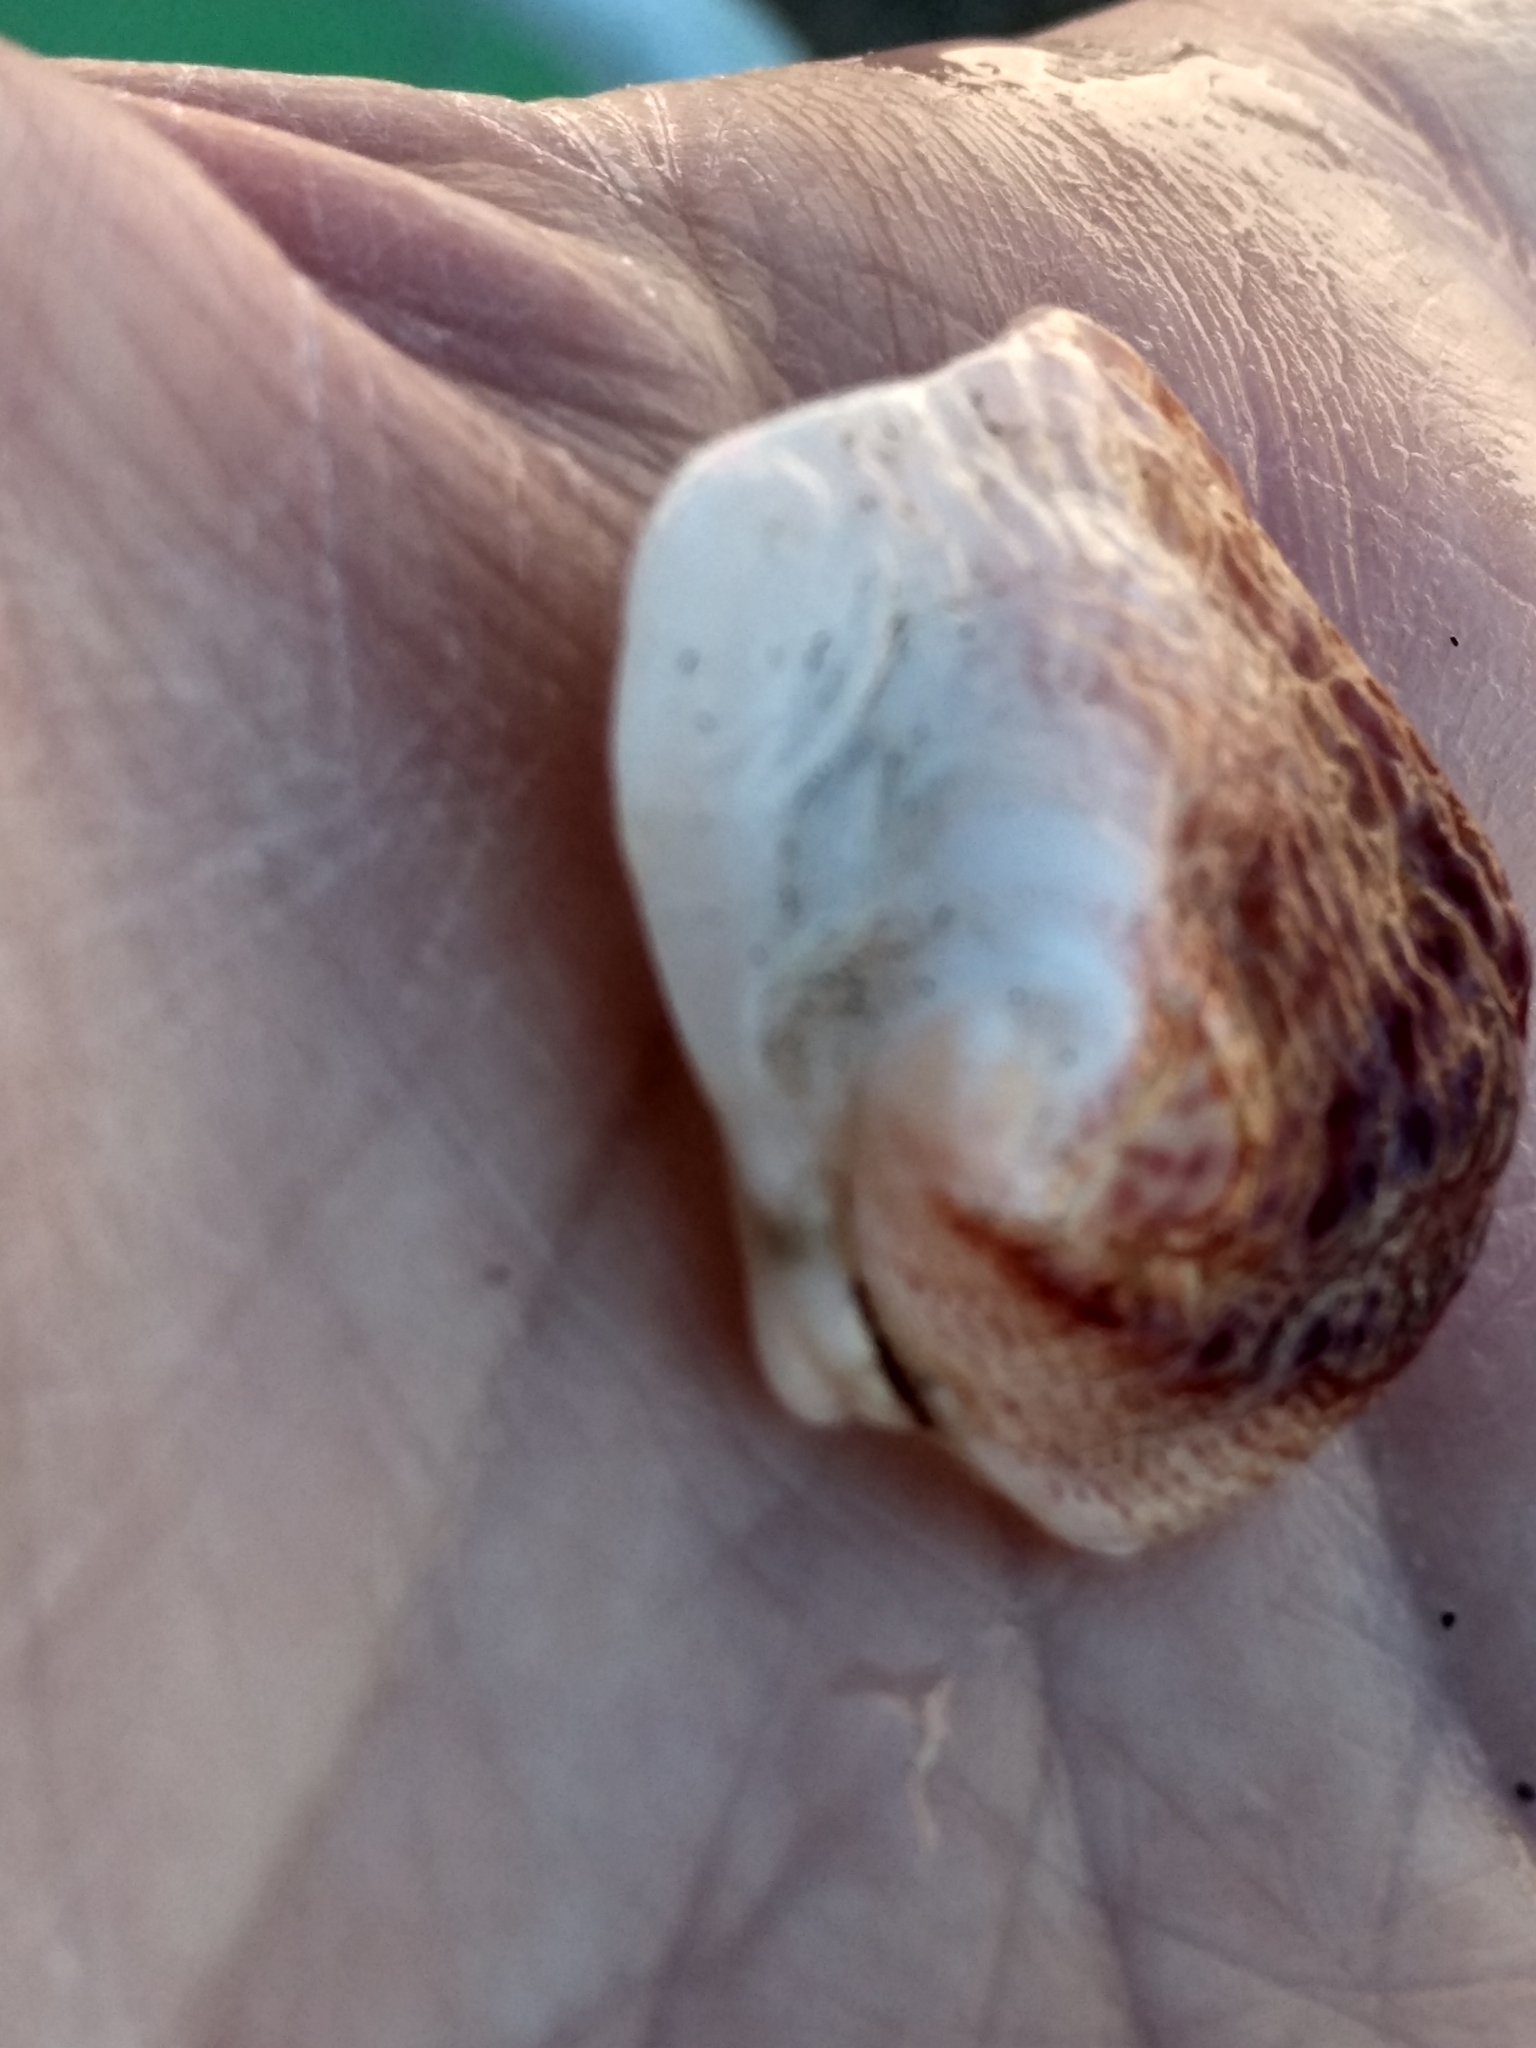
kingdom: Animalia
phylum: Mollusca
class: Bivalvia
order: Venerida
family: Chamidae
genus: Chama
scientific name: Chama arcana
